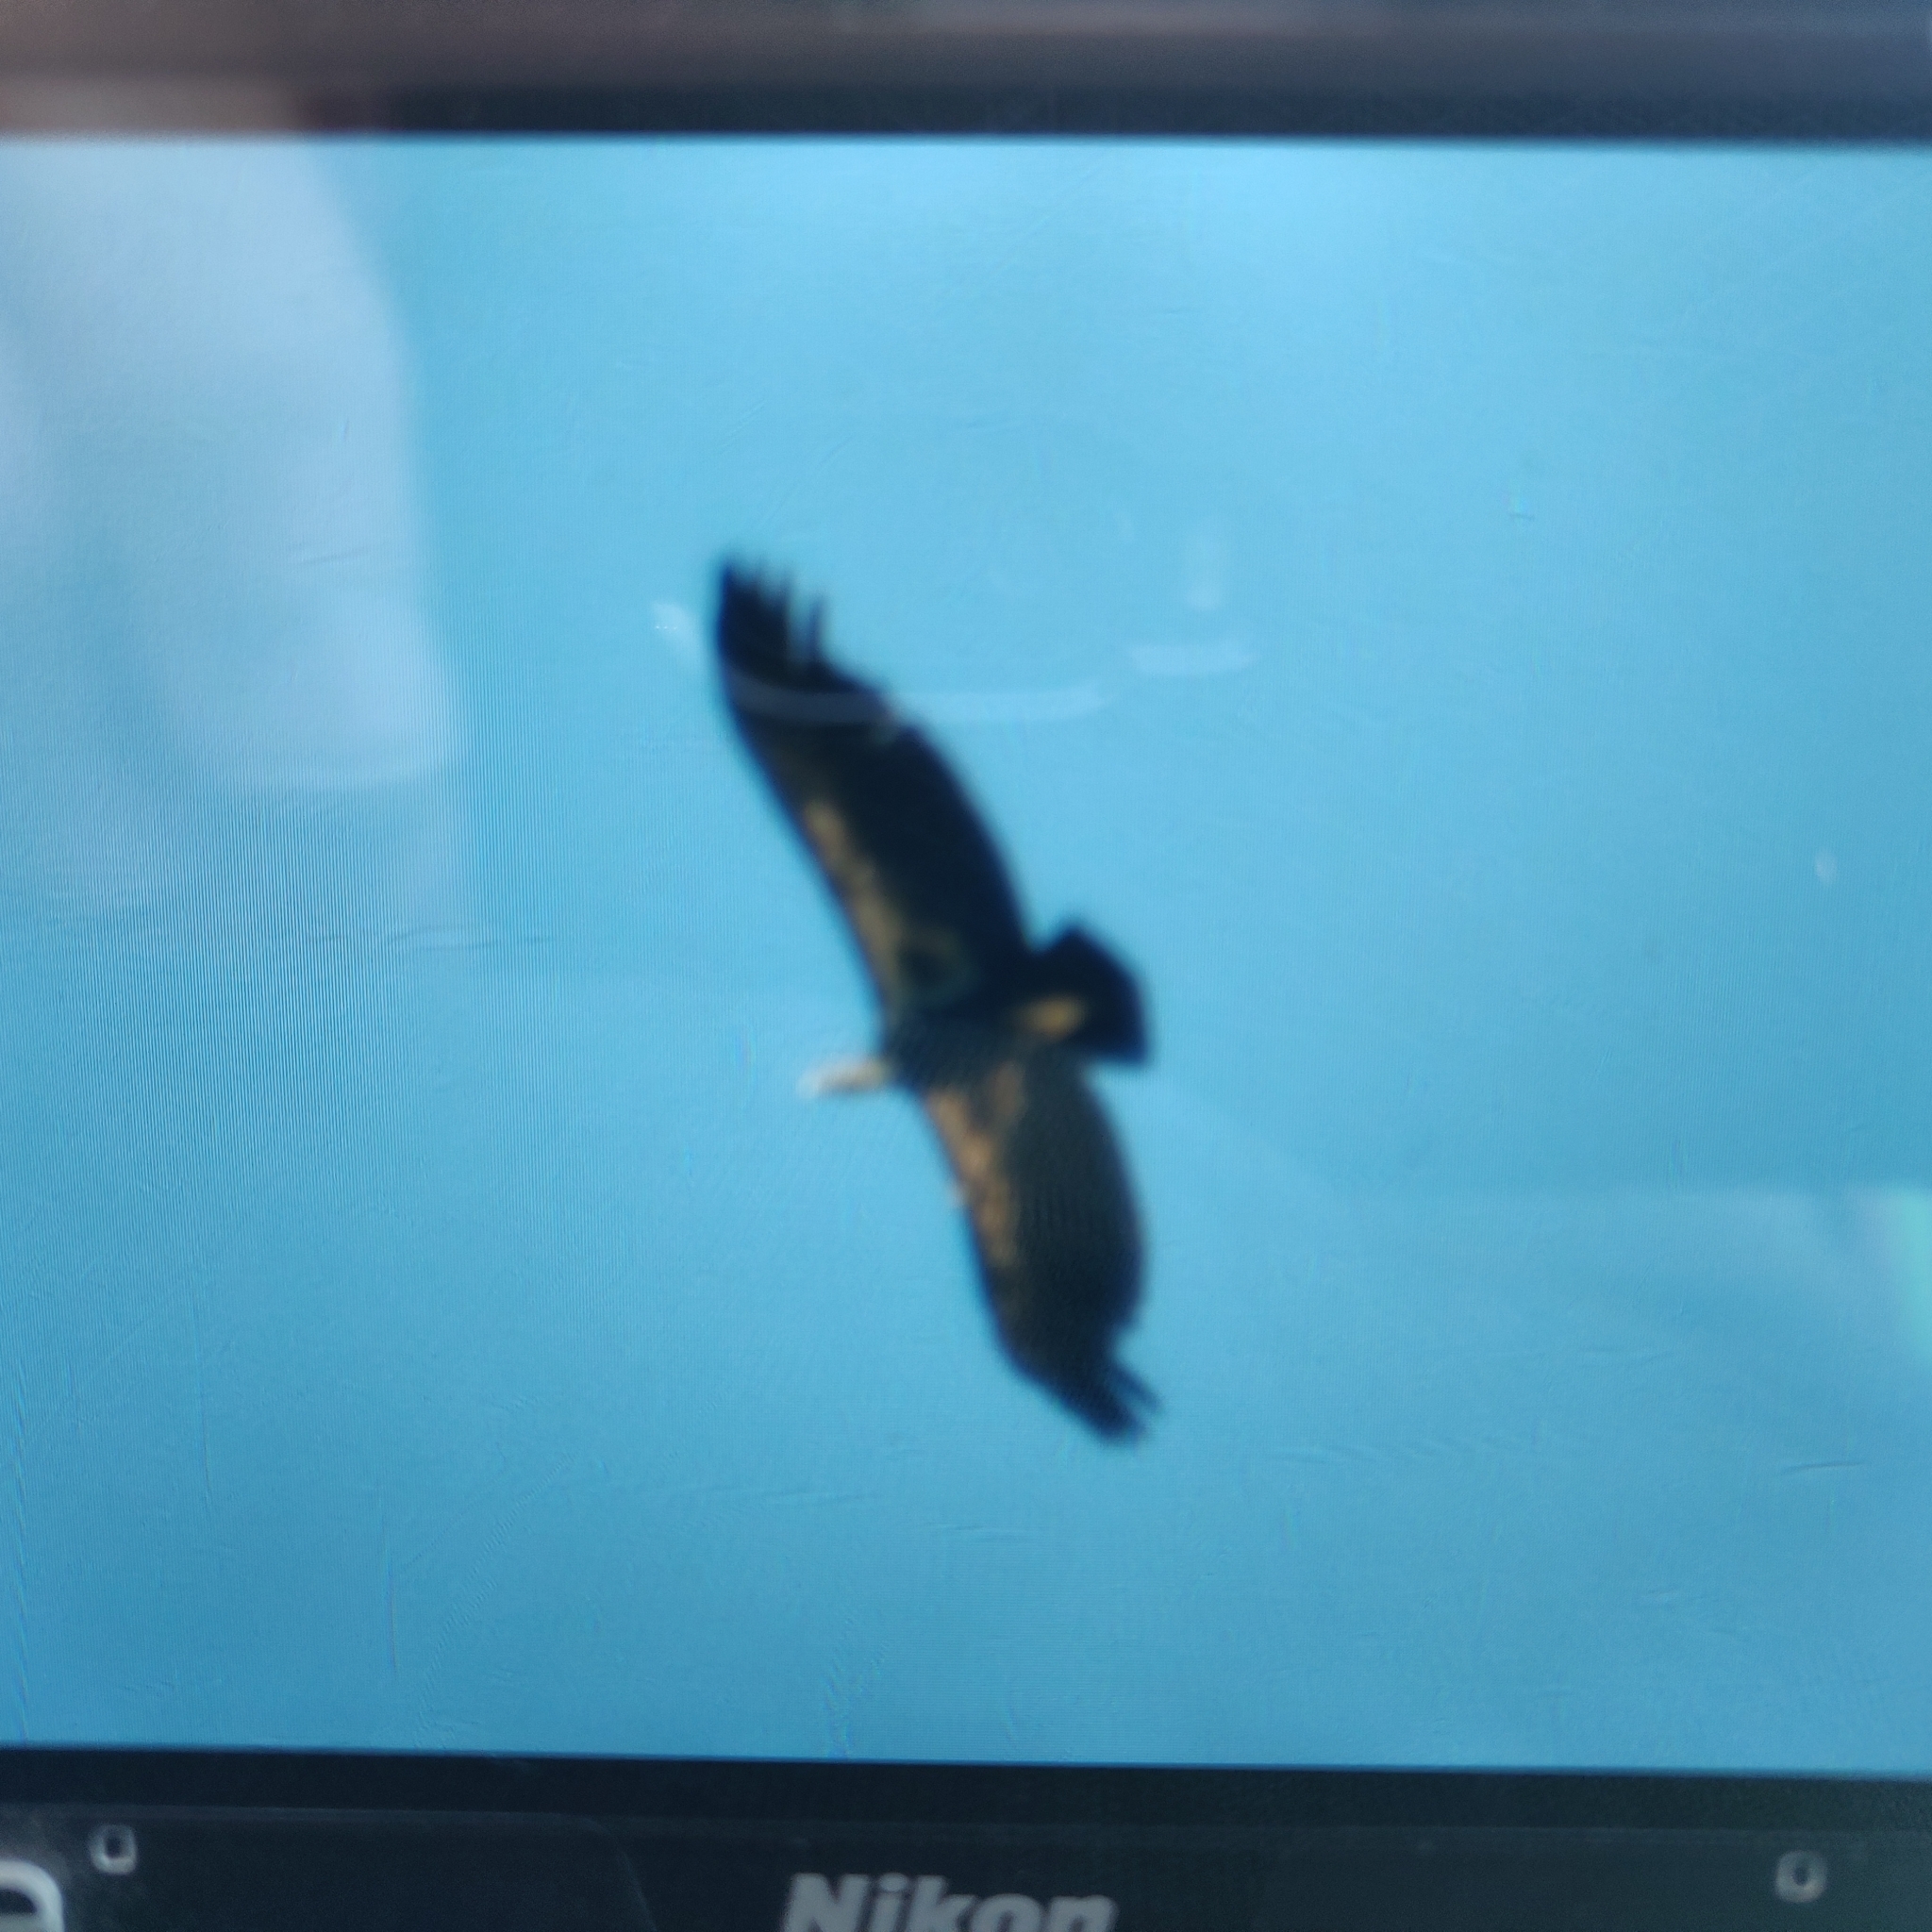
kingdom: Animalia
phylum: Chordata
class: Aves
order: Accipitriformes
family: Cathartidae
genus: Gymnogyps
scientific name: Gymnogyps californianus
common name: California condor
